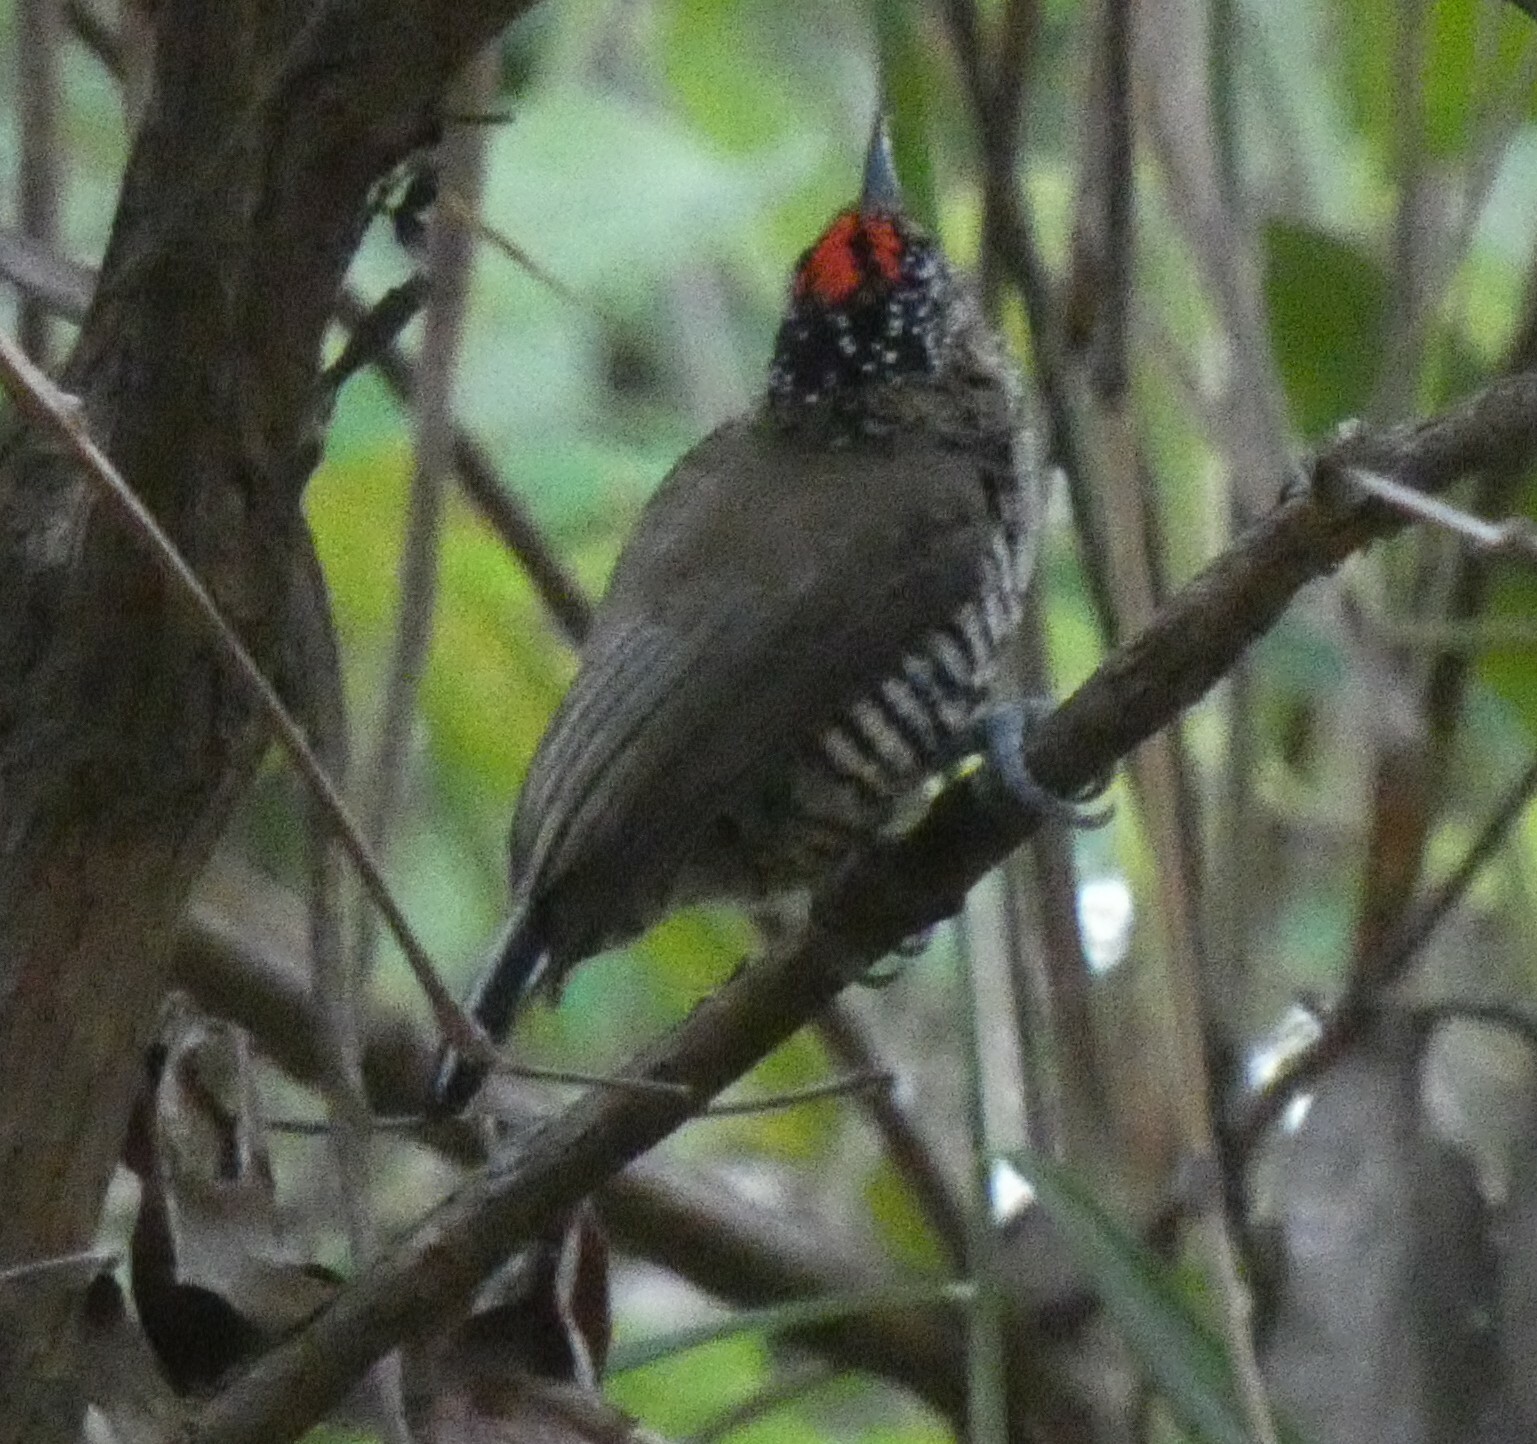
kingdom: Animalia
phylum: Chordata
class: Aves
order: Piciformes
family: Picidae
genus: Picumnus
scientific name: Picumnus cirratus
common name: White-barred piculet
